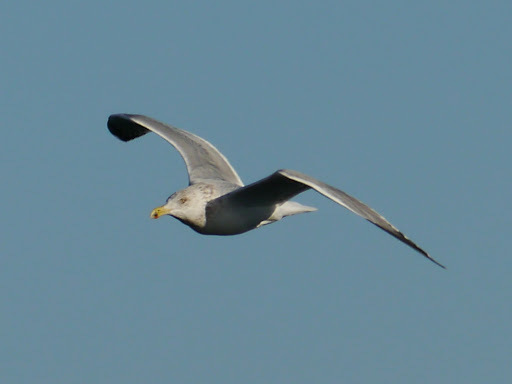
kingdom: Animalia
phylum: Chordata
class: Aves
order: Charadriiformes
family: Laridae
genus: Larus
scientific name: Larus argentatus
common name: Herring gull
